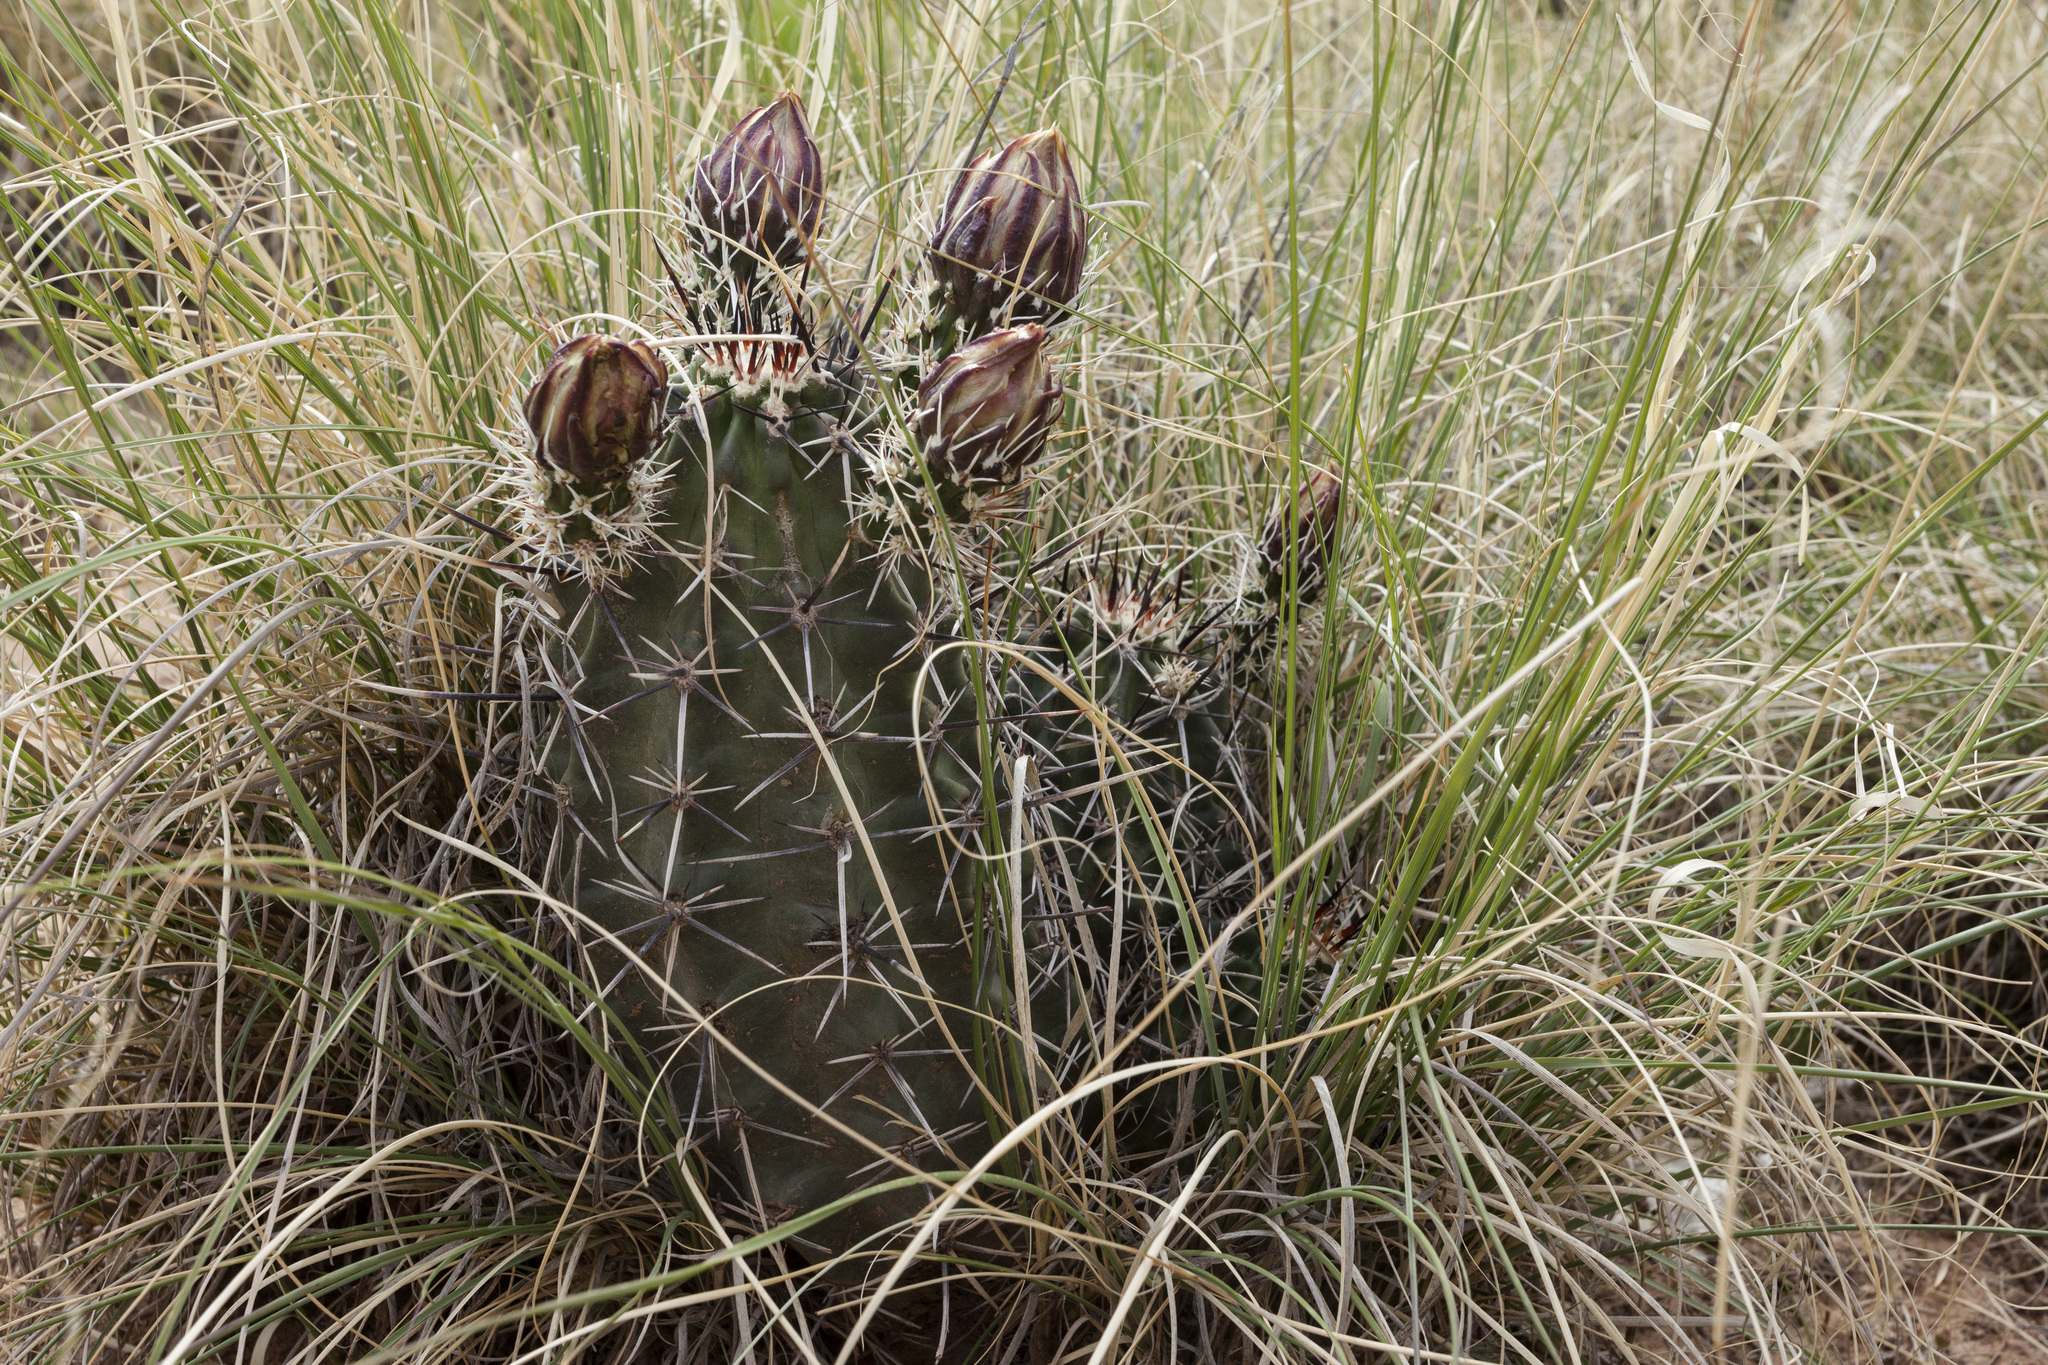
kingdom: Plantae
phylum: Tracheophyta
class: Magnoliopsida
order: Caryophyllales
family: Cactaceae
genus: Echinocereus
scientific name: Echinocereus fendleri
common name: Fendler's hedgehog cactus
